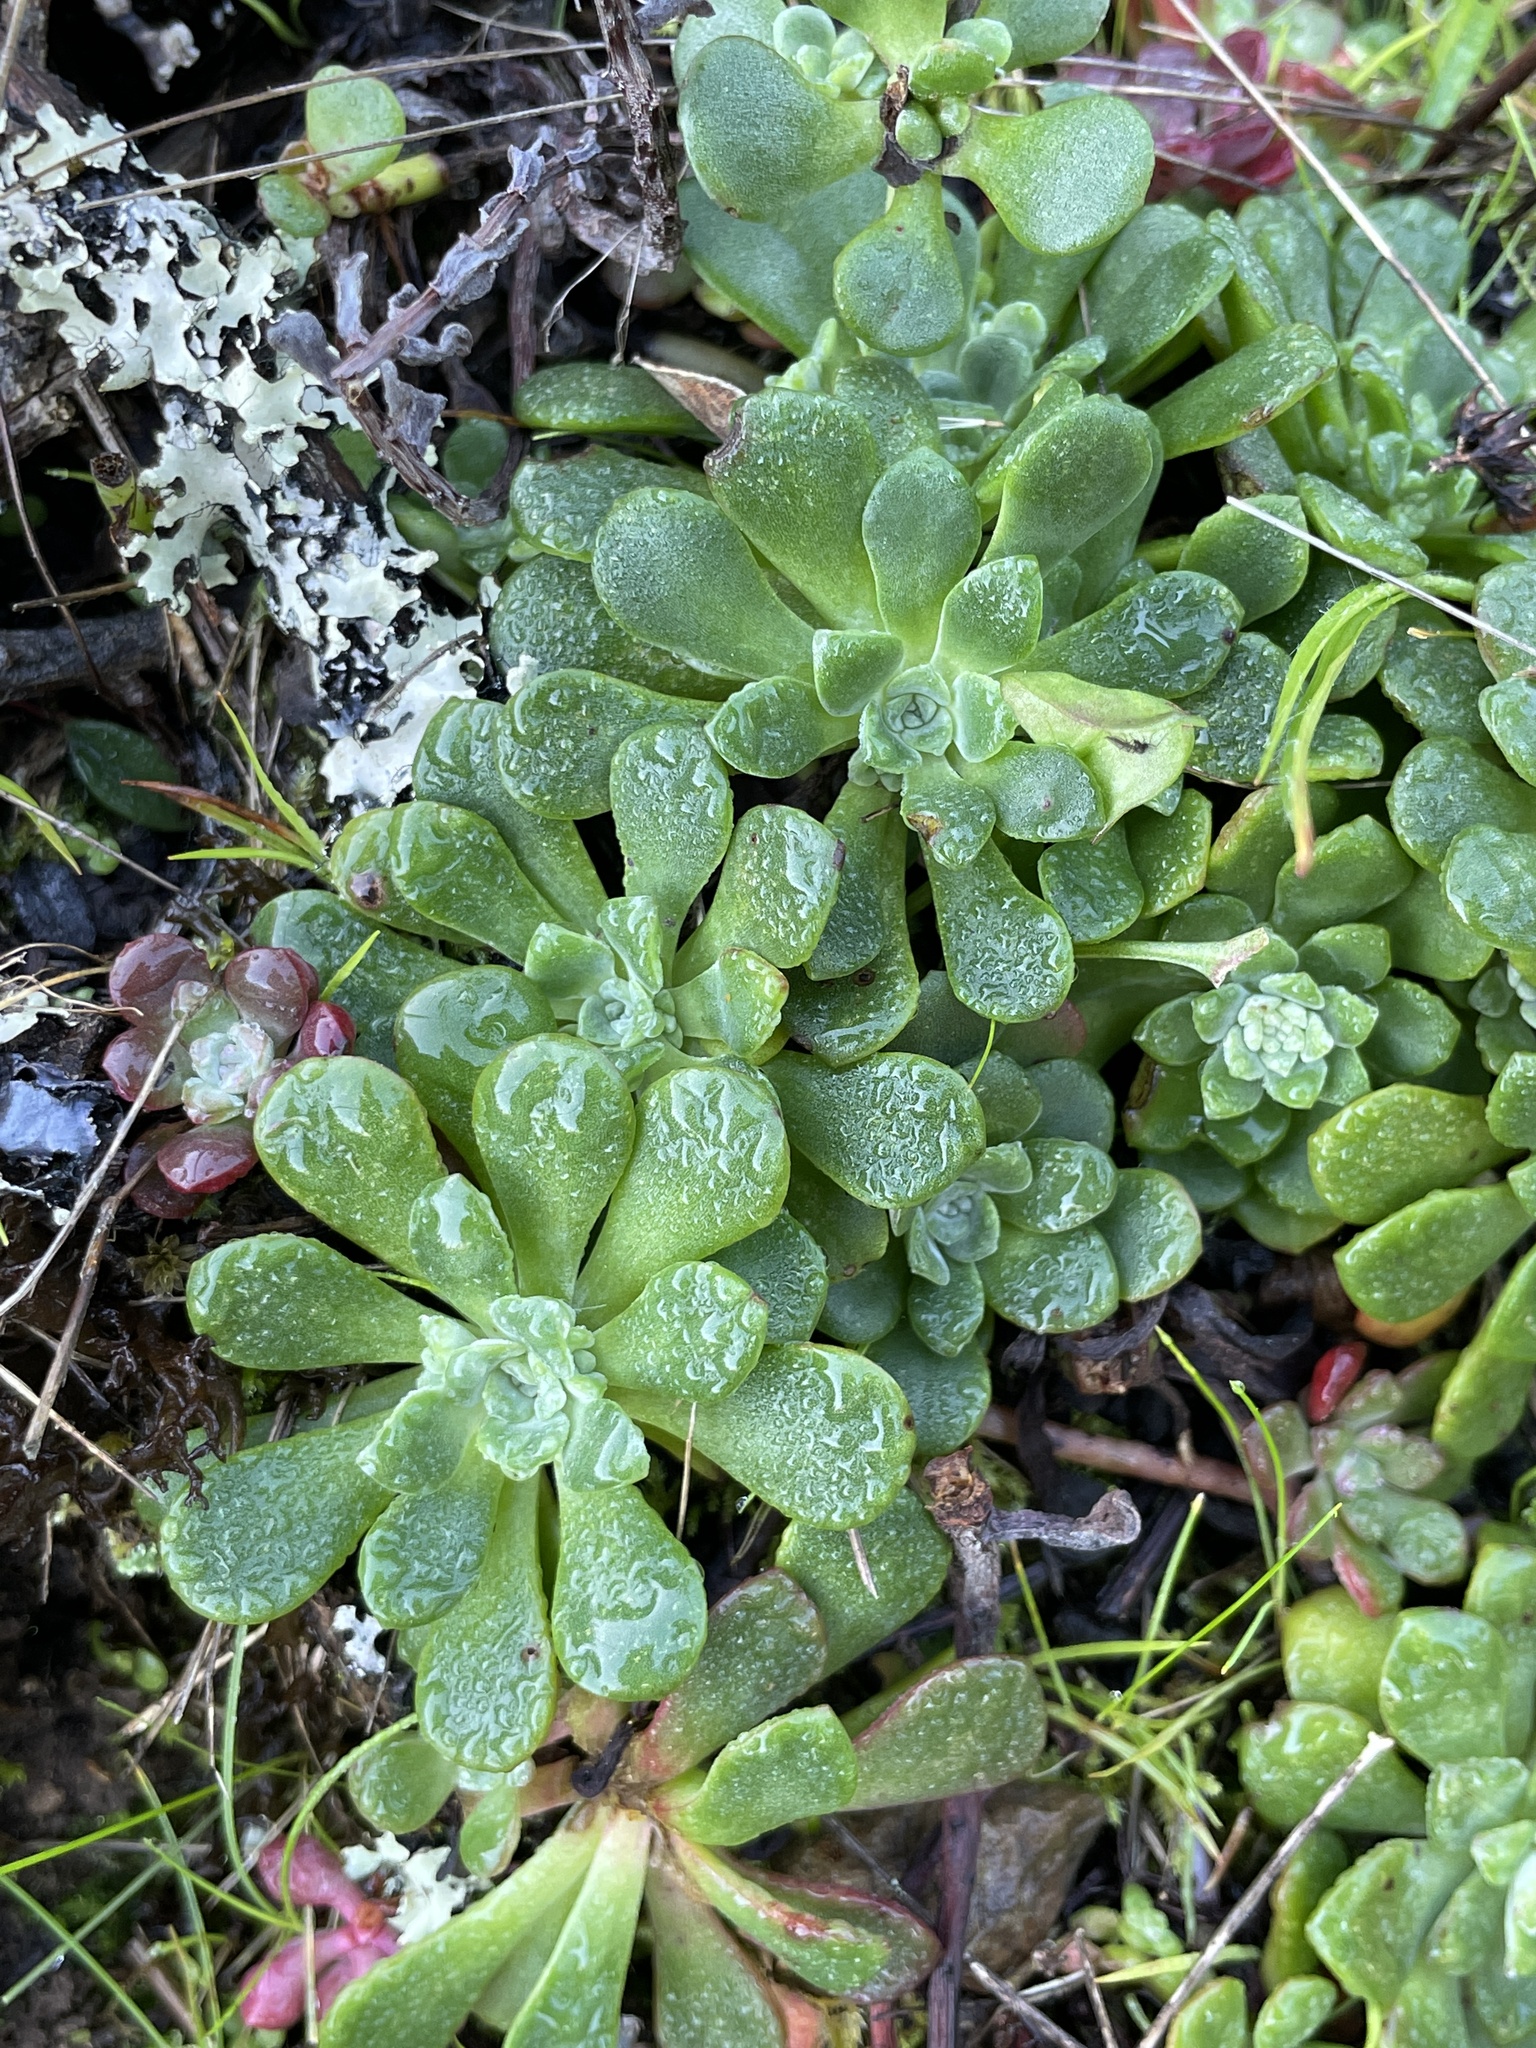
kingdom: Plantae
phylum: Tracheophyta
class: Magnoliopsida
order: Saxifragales
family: Crassulaceae
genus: Sedum
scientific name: Sedum spathulifolium
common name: Colorado stonecrop
